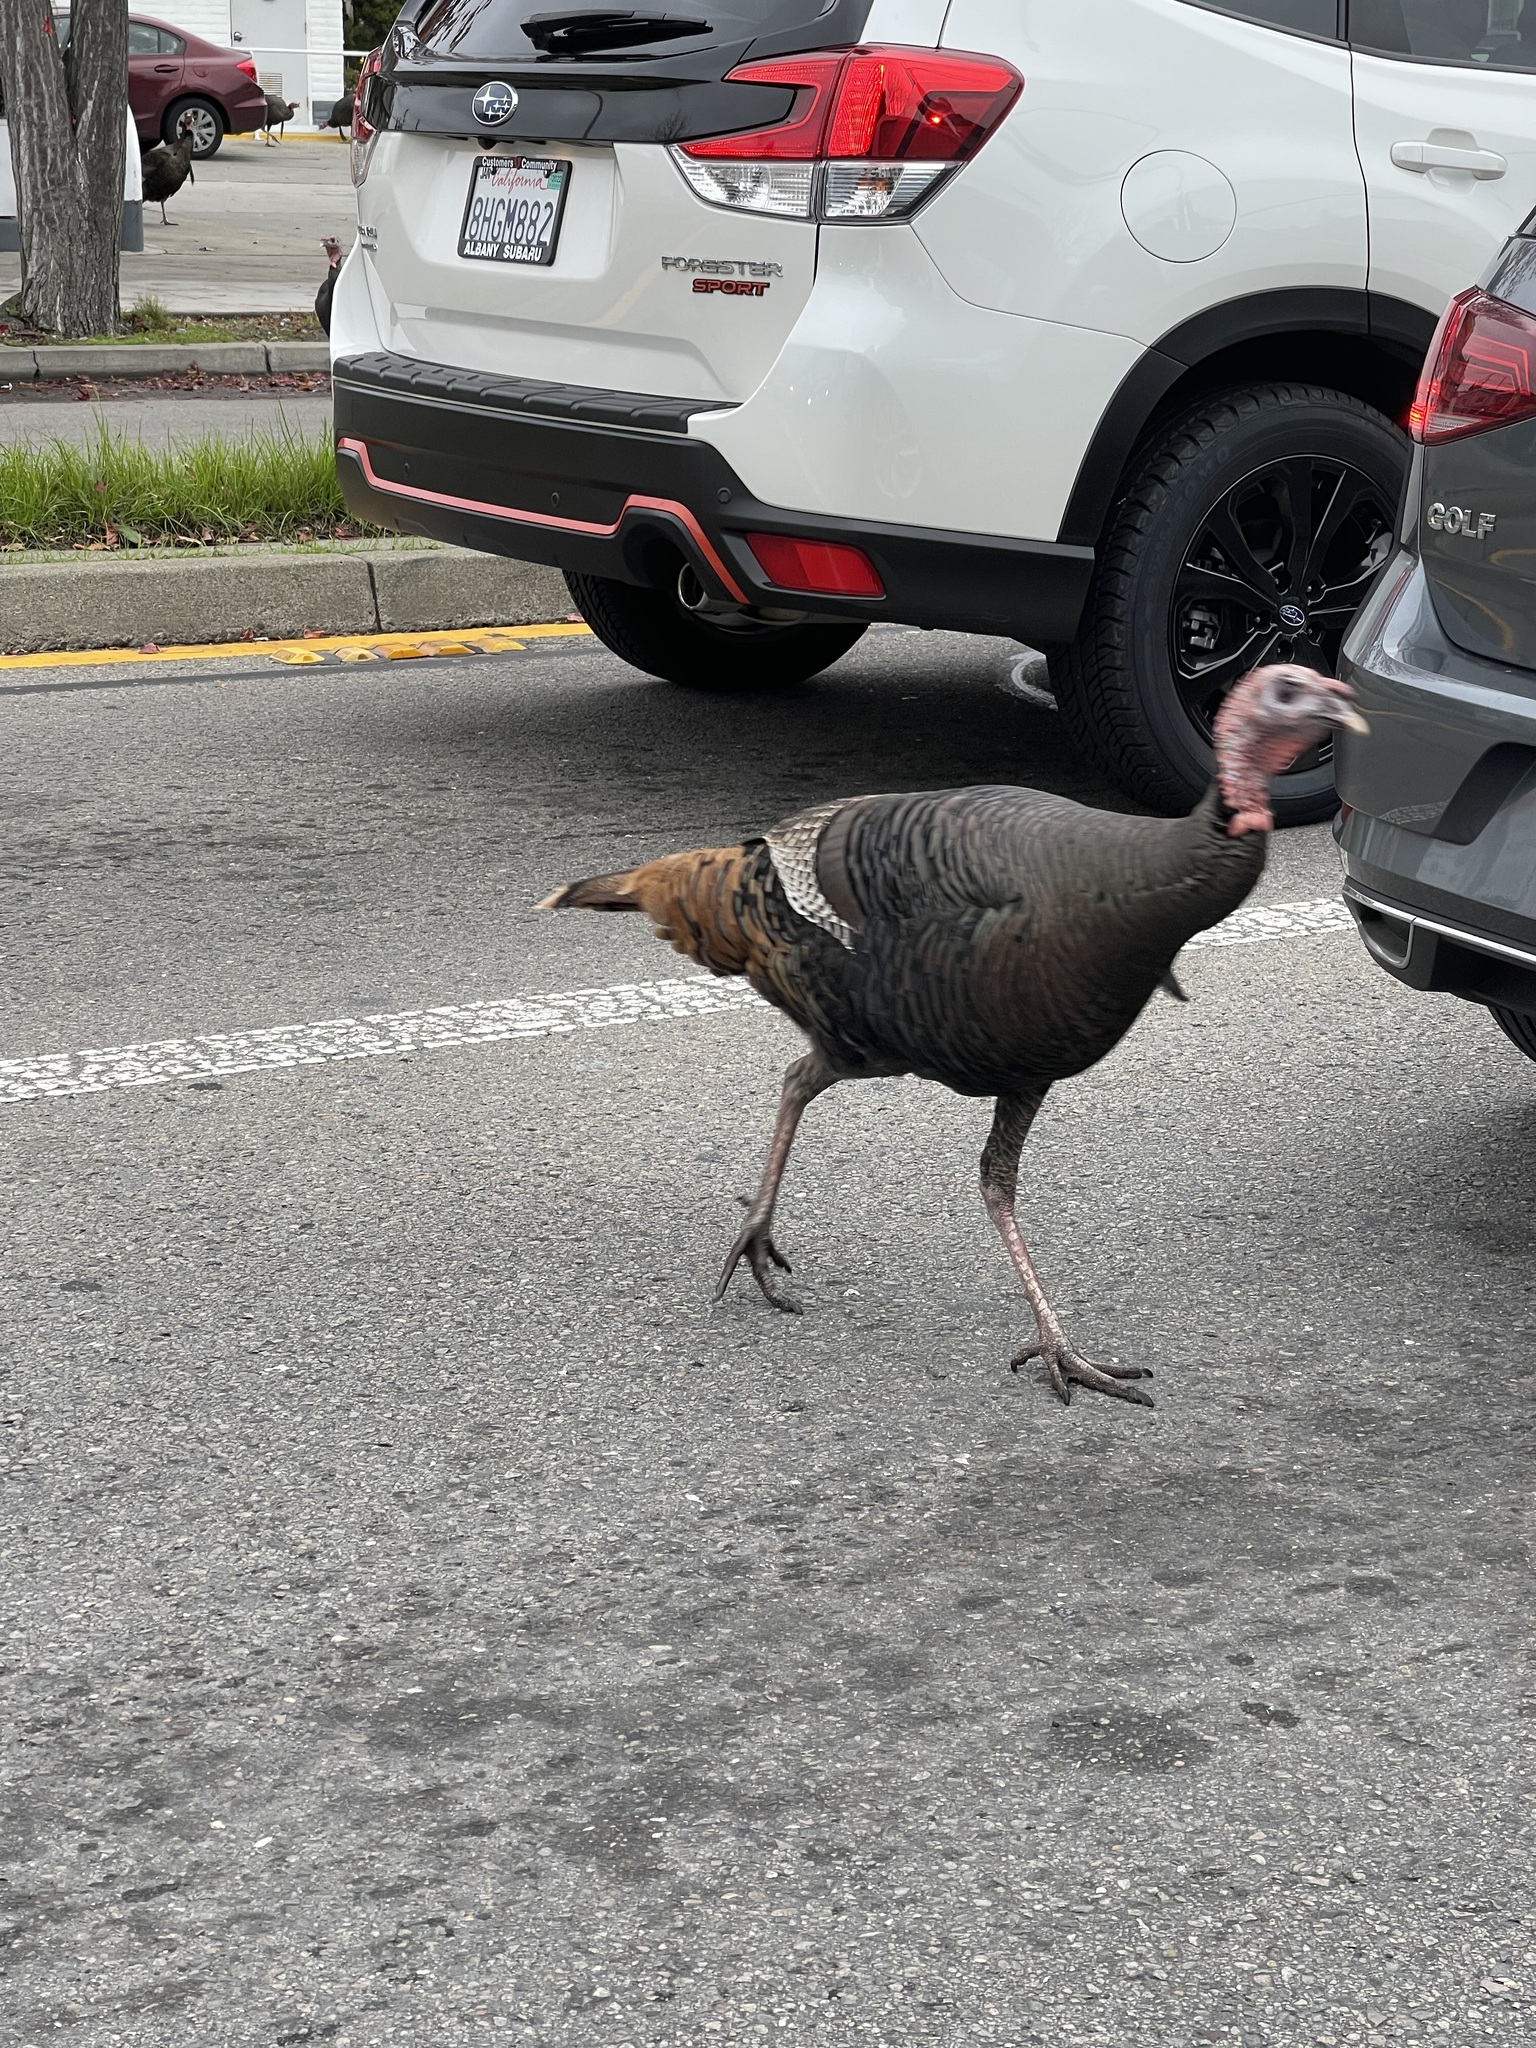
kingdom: Animalia
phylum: Chordata
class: Aves
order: Galliformes
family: Phasianidae
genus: Meleagris
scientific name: Meleagris gallopavo
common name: Wild turkey
